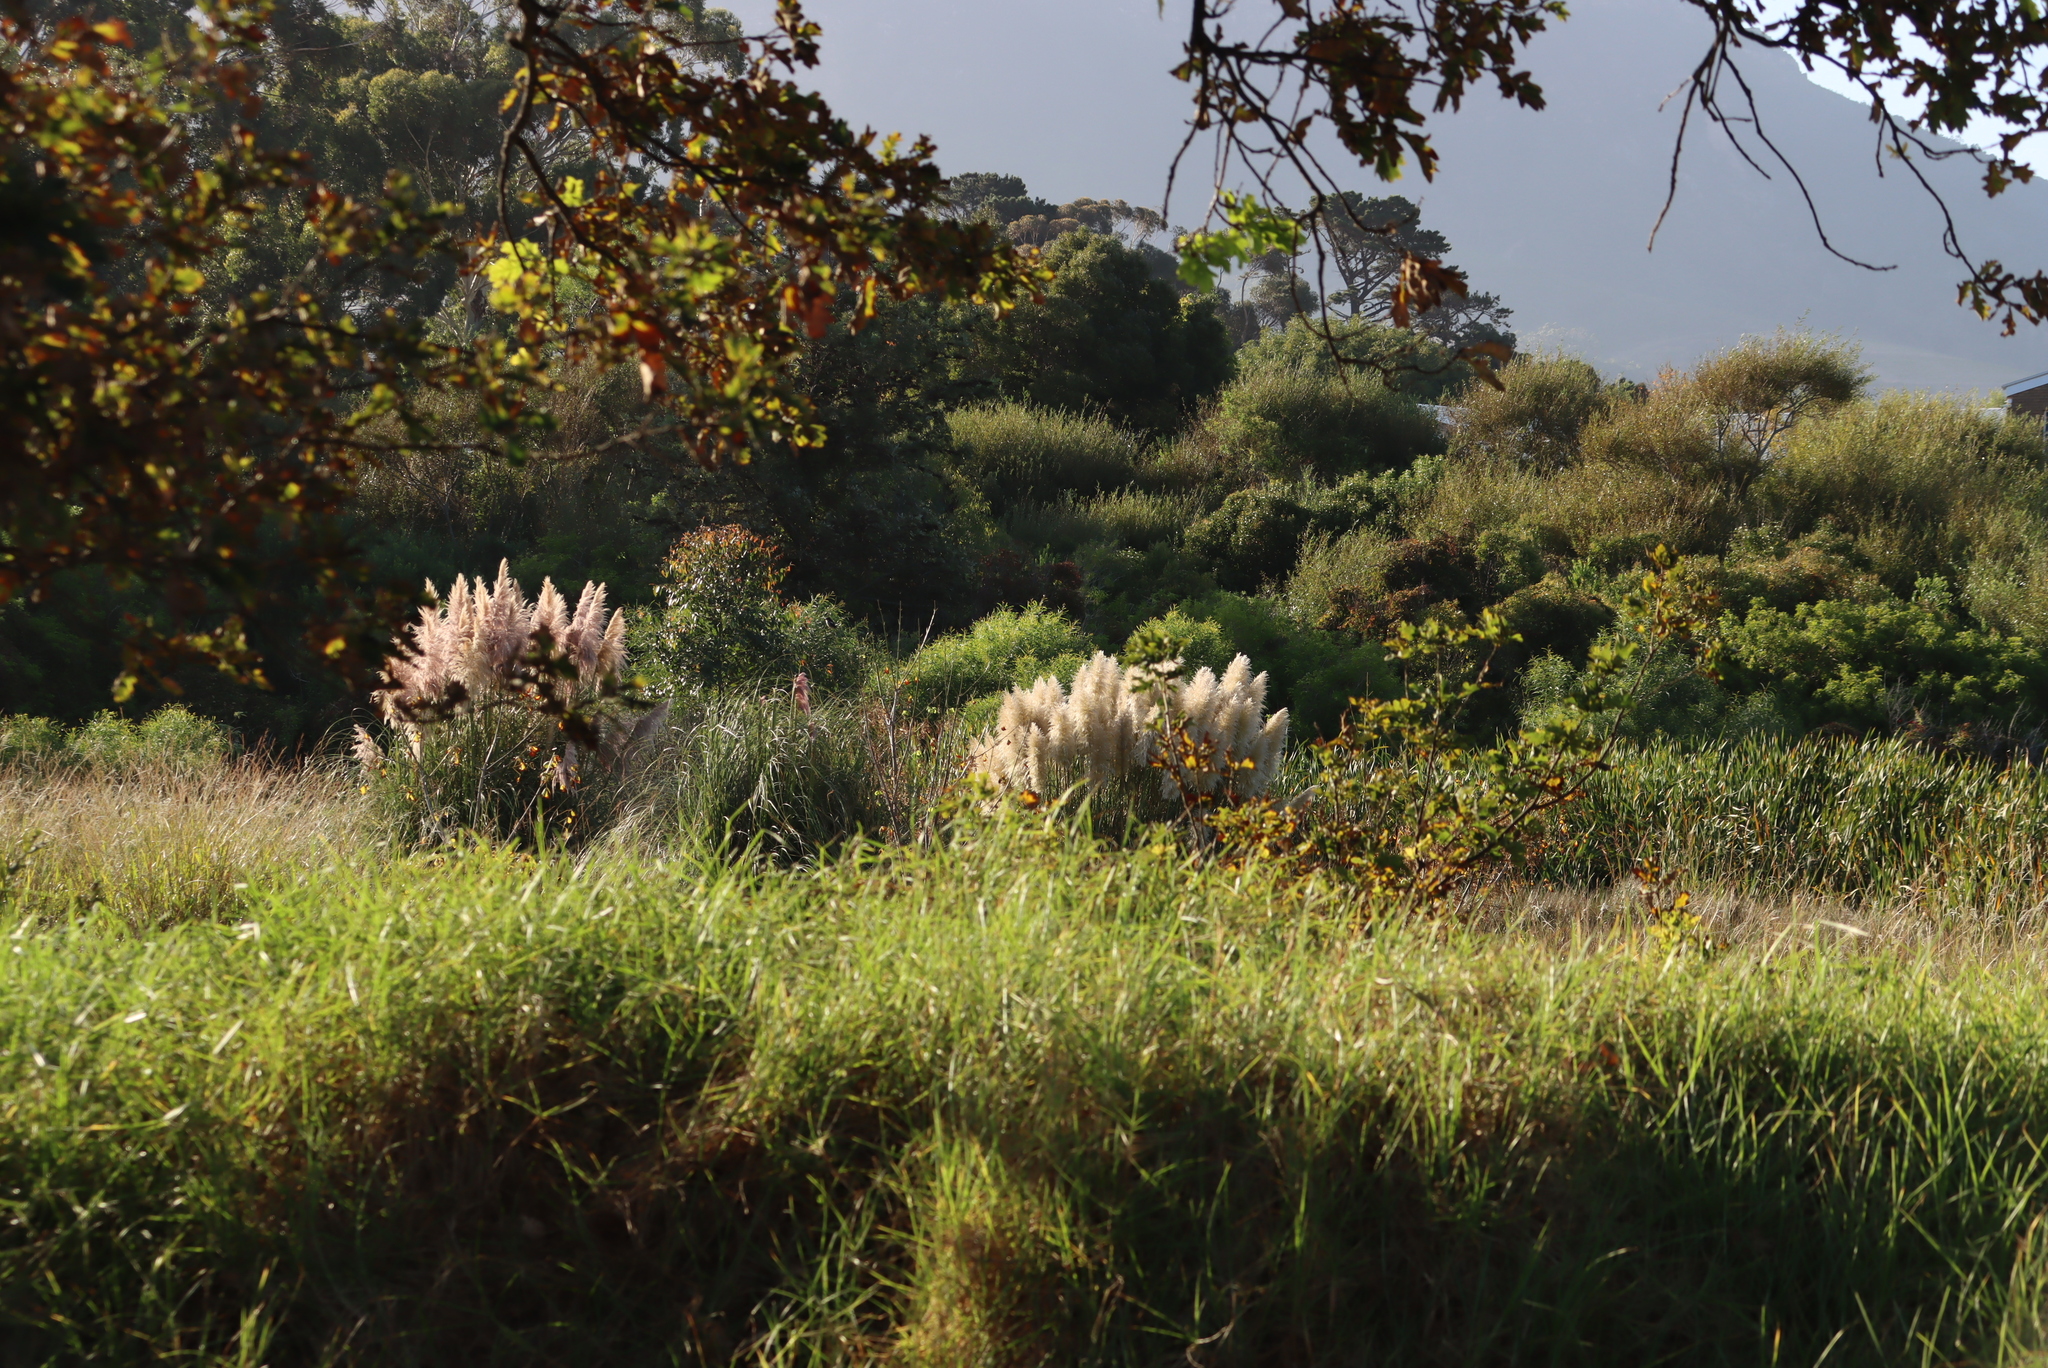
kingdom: Plantae
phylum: Tracheophyta
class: Liliopsida
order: Poales
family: Poaceae
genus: Cortaderia
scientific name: Cortaderia selloana
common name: Uruguayan pampas grass
